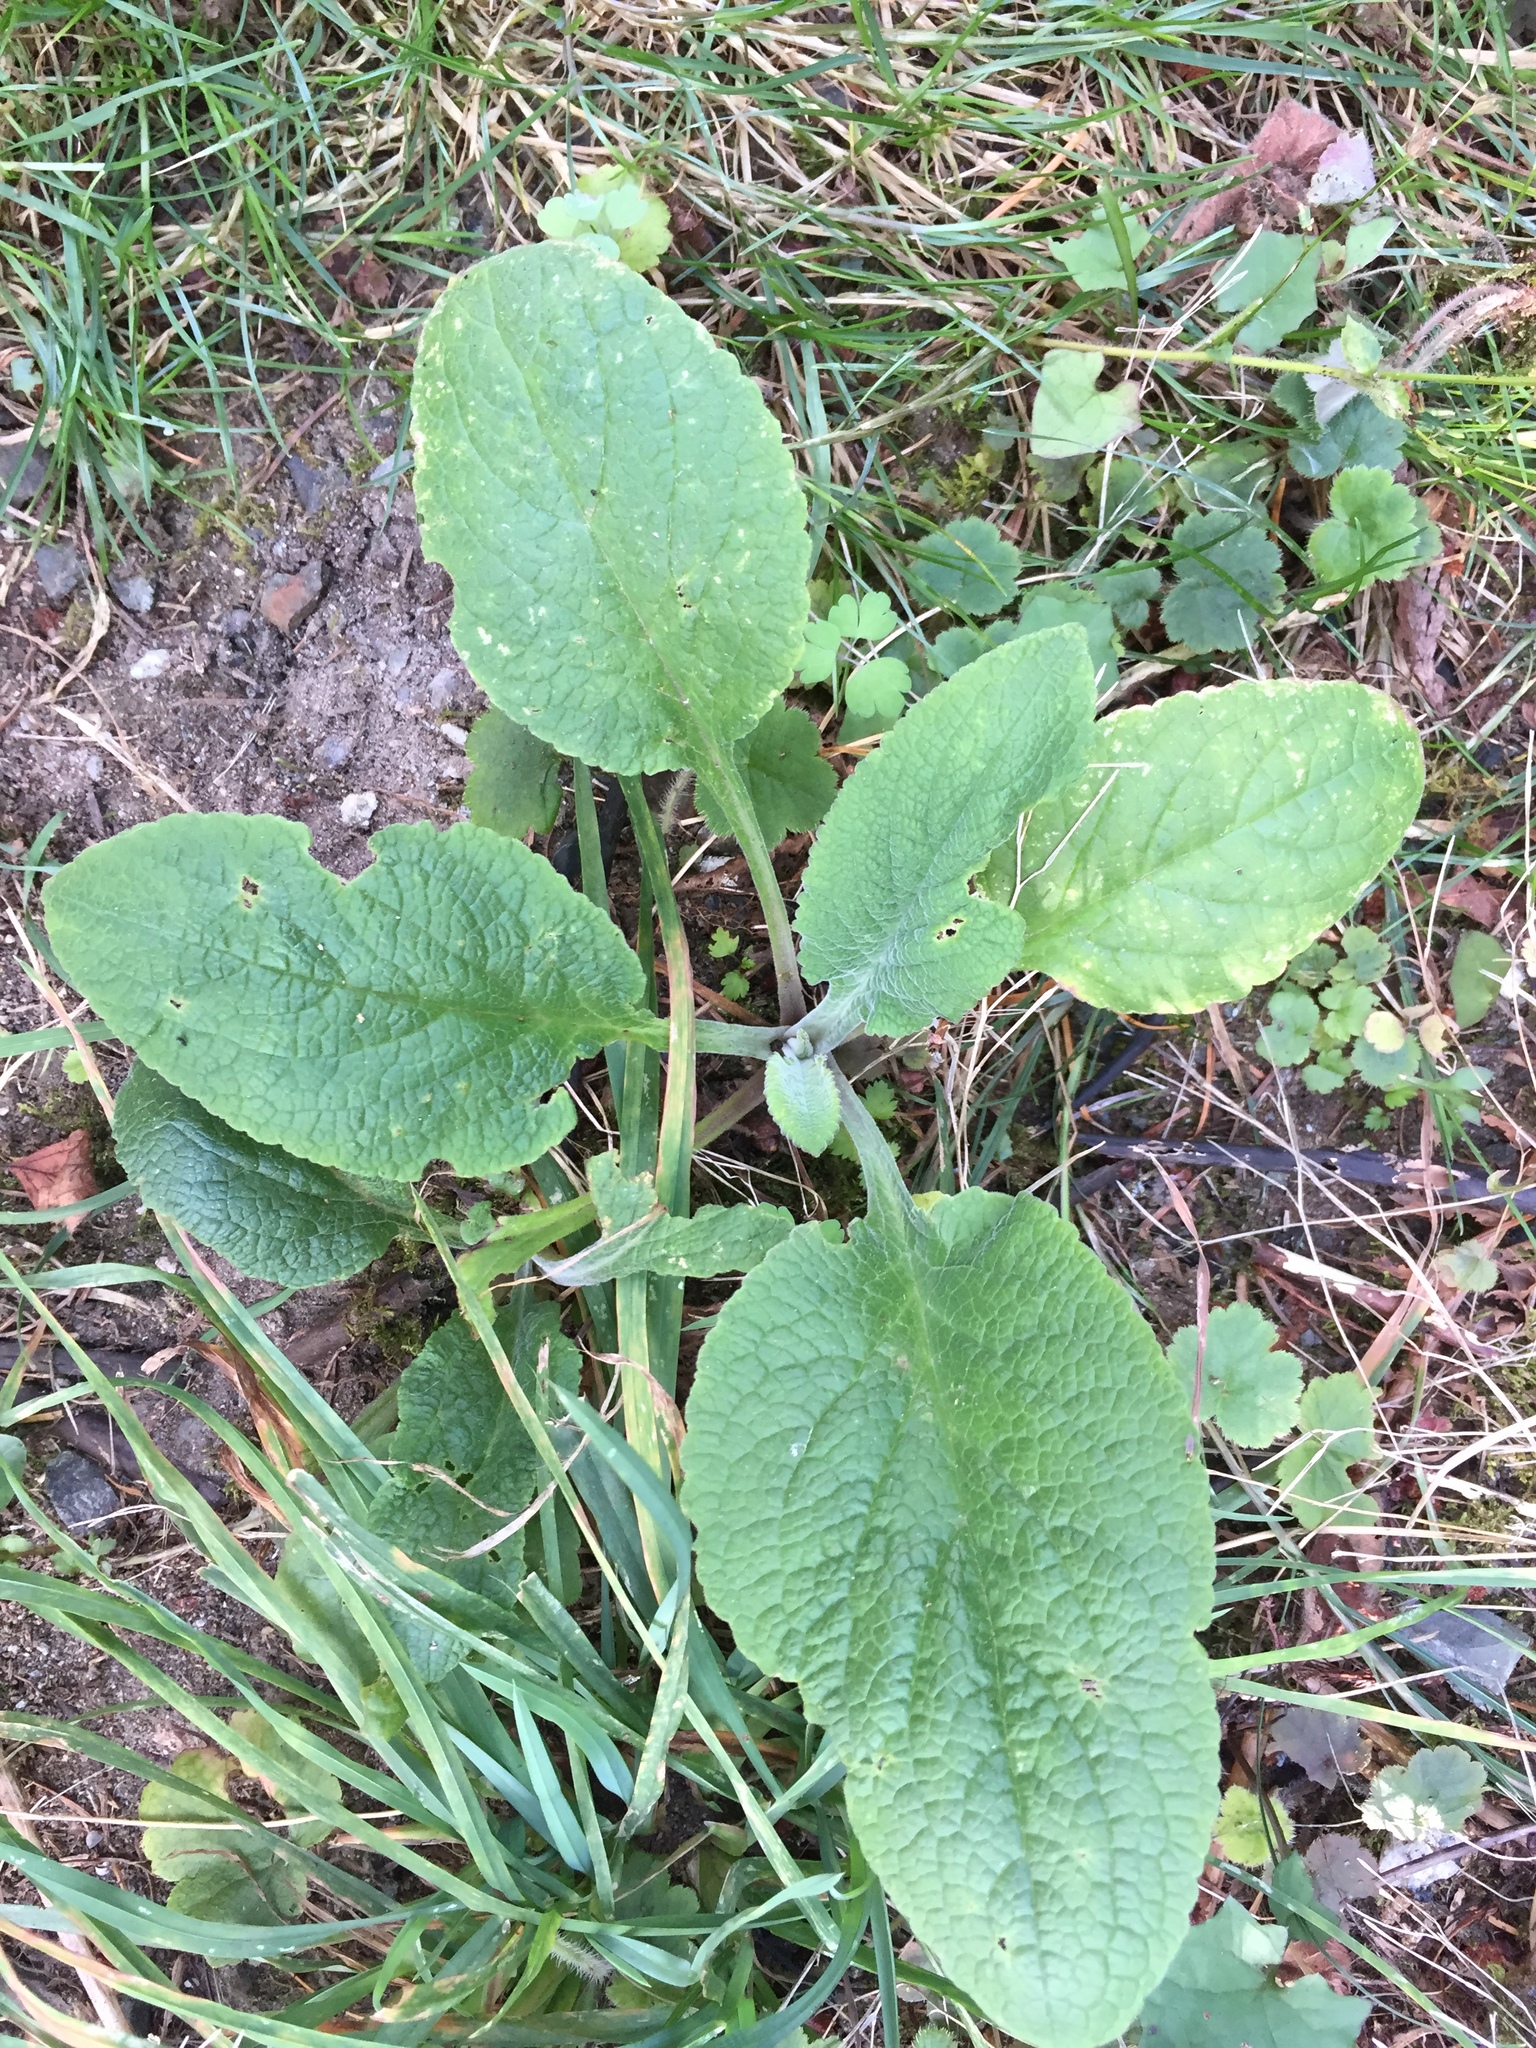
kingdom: Plantae
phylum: Tracheophyta
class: Magnoliopsida
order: Lamiales
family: Plantaginaceae
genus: Digitalis
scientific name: Digitalis purpurea
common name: Foxglove
